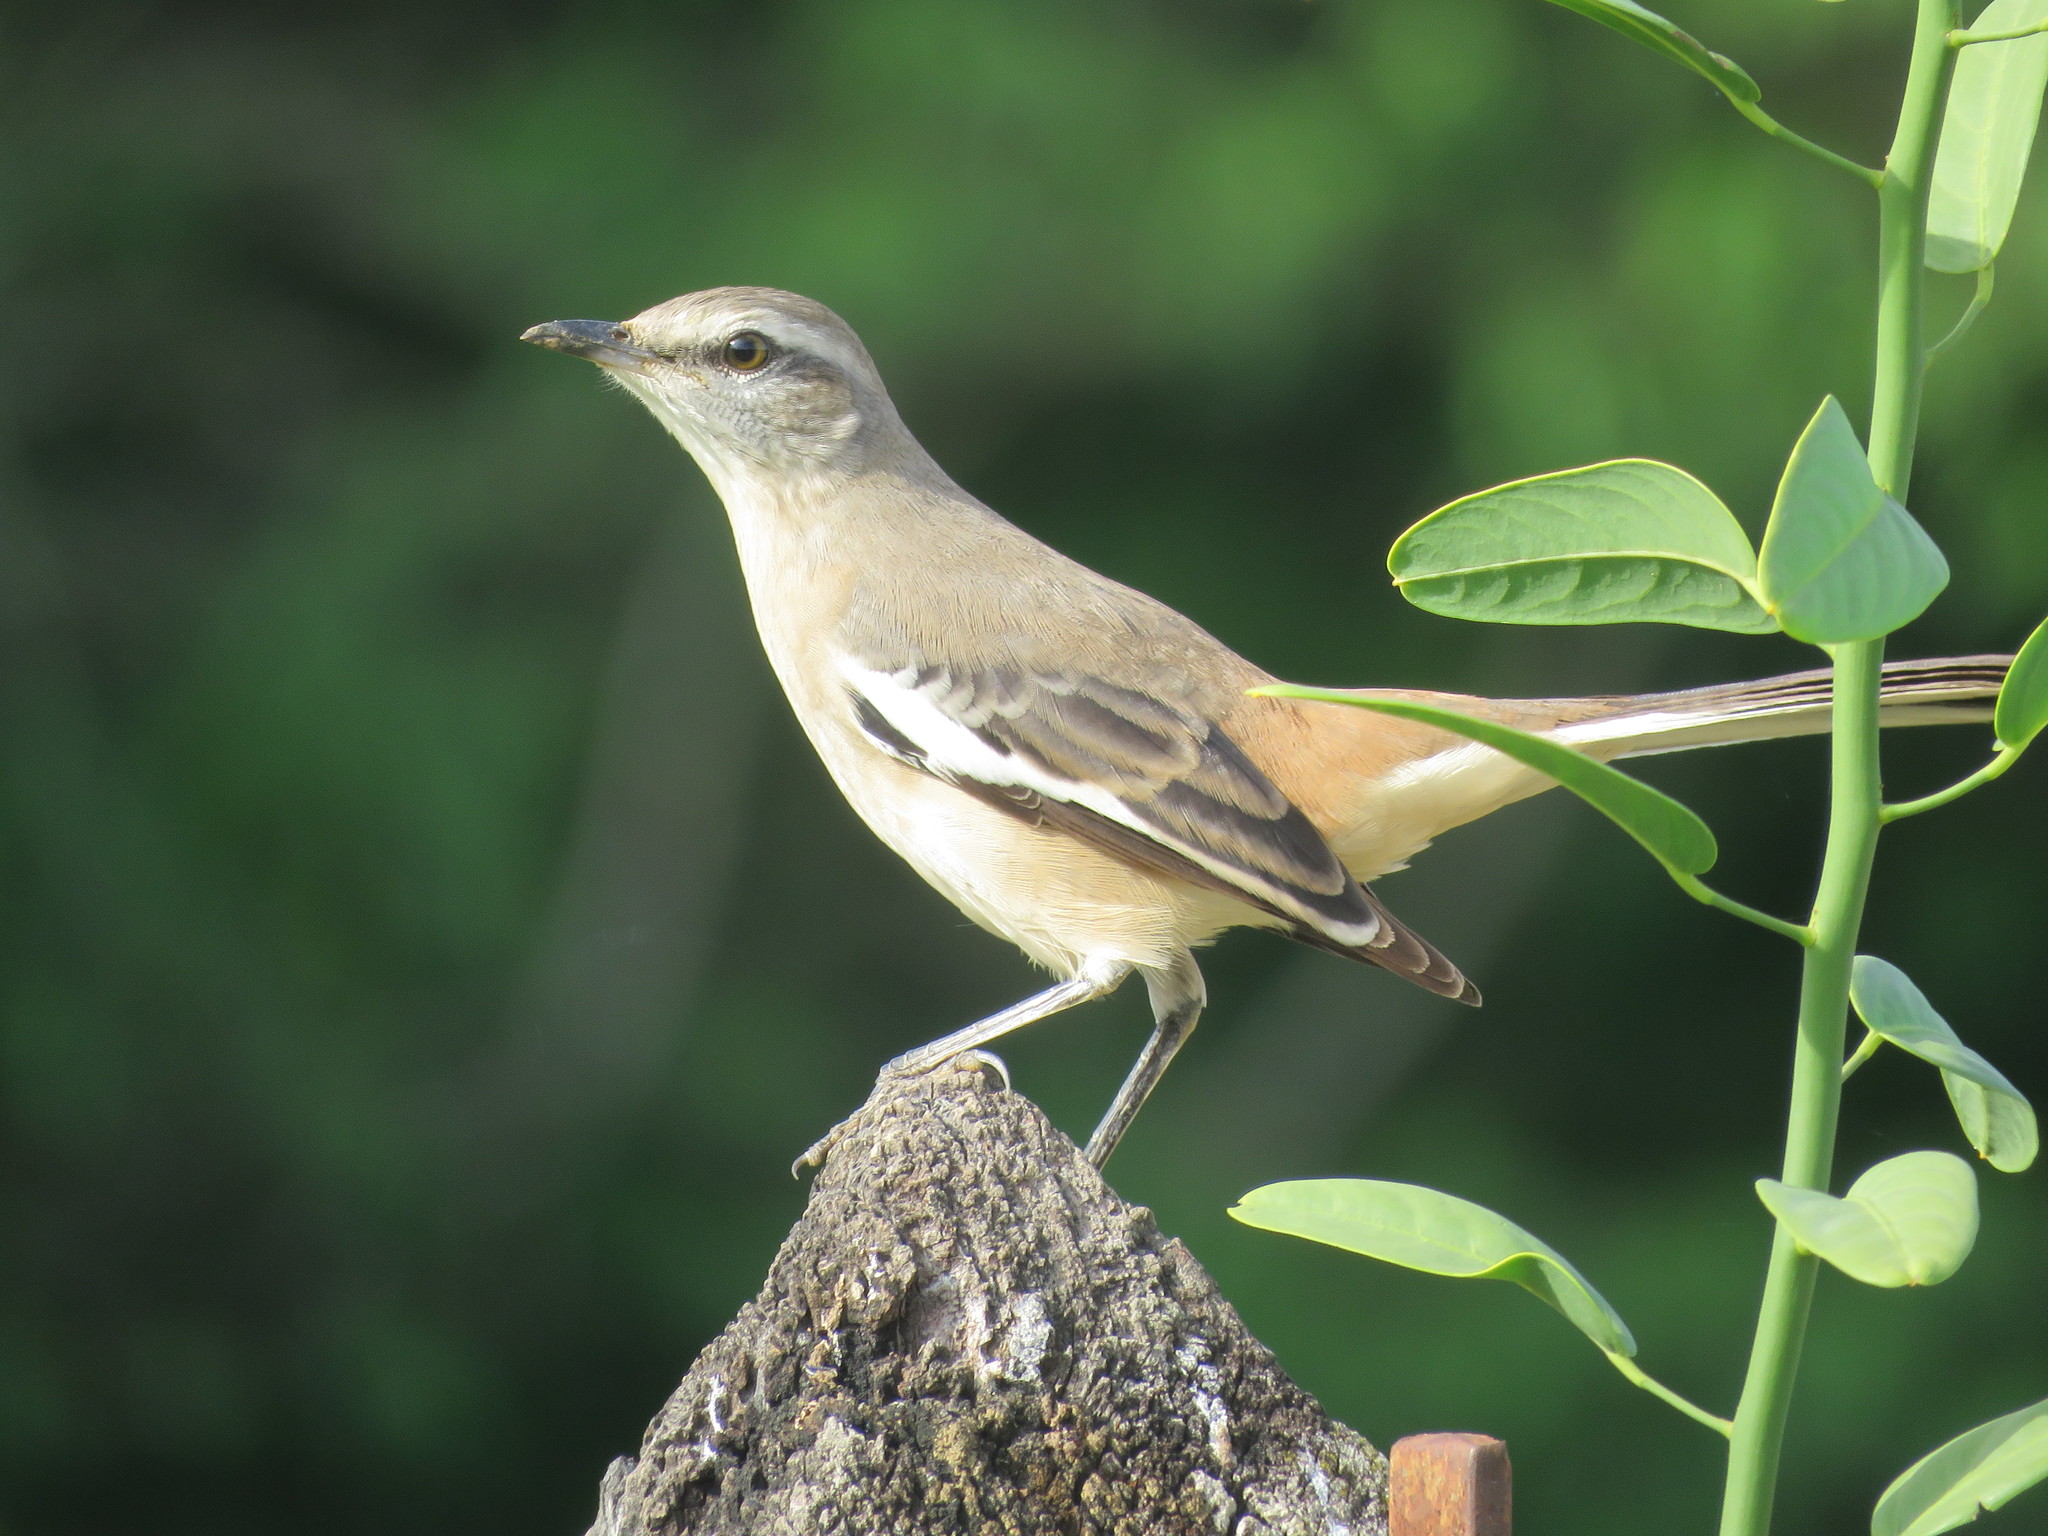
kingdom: Animalia
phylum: Chordata
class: Aves
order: Passeriformes
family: Mimidae
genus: Mimus
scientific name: Mimus triurus
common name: White-banded mockingbird
